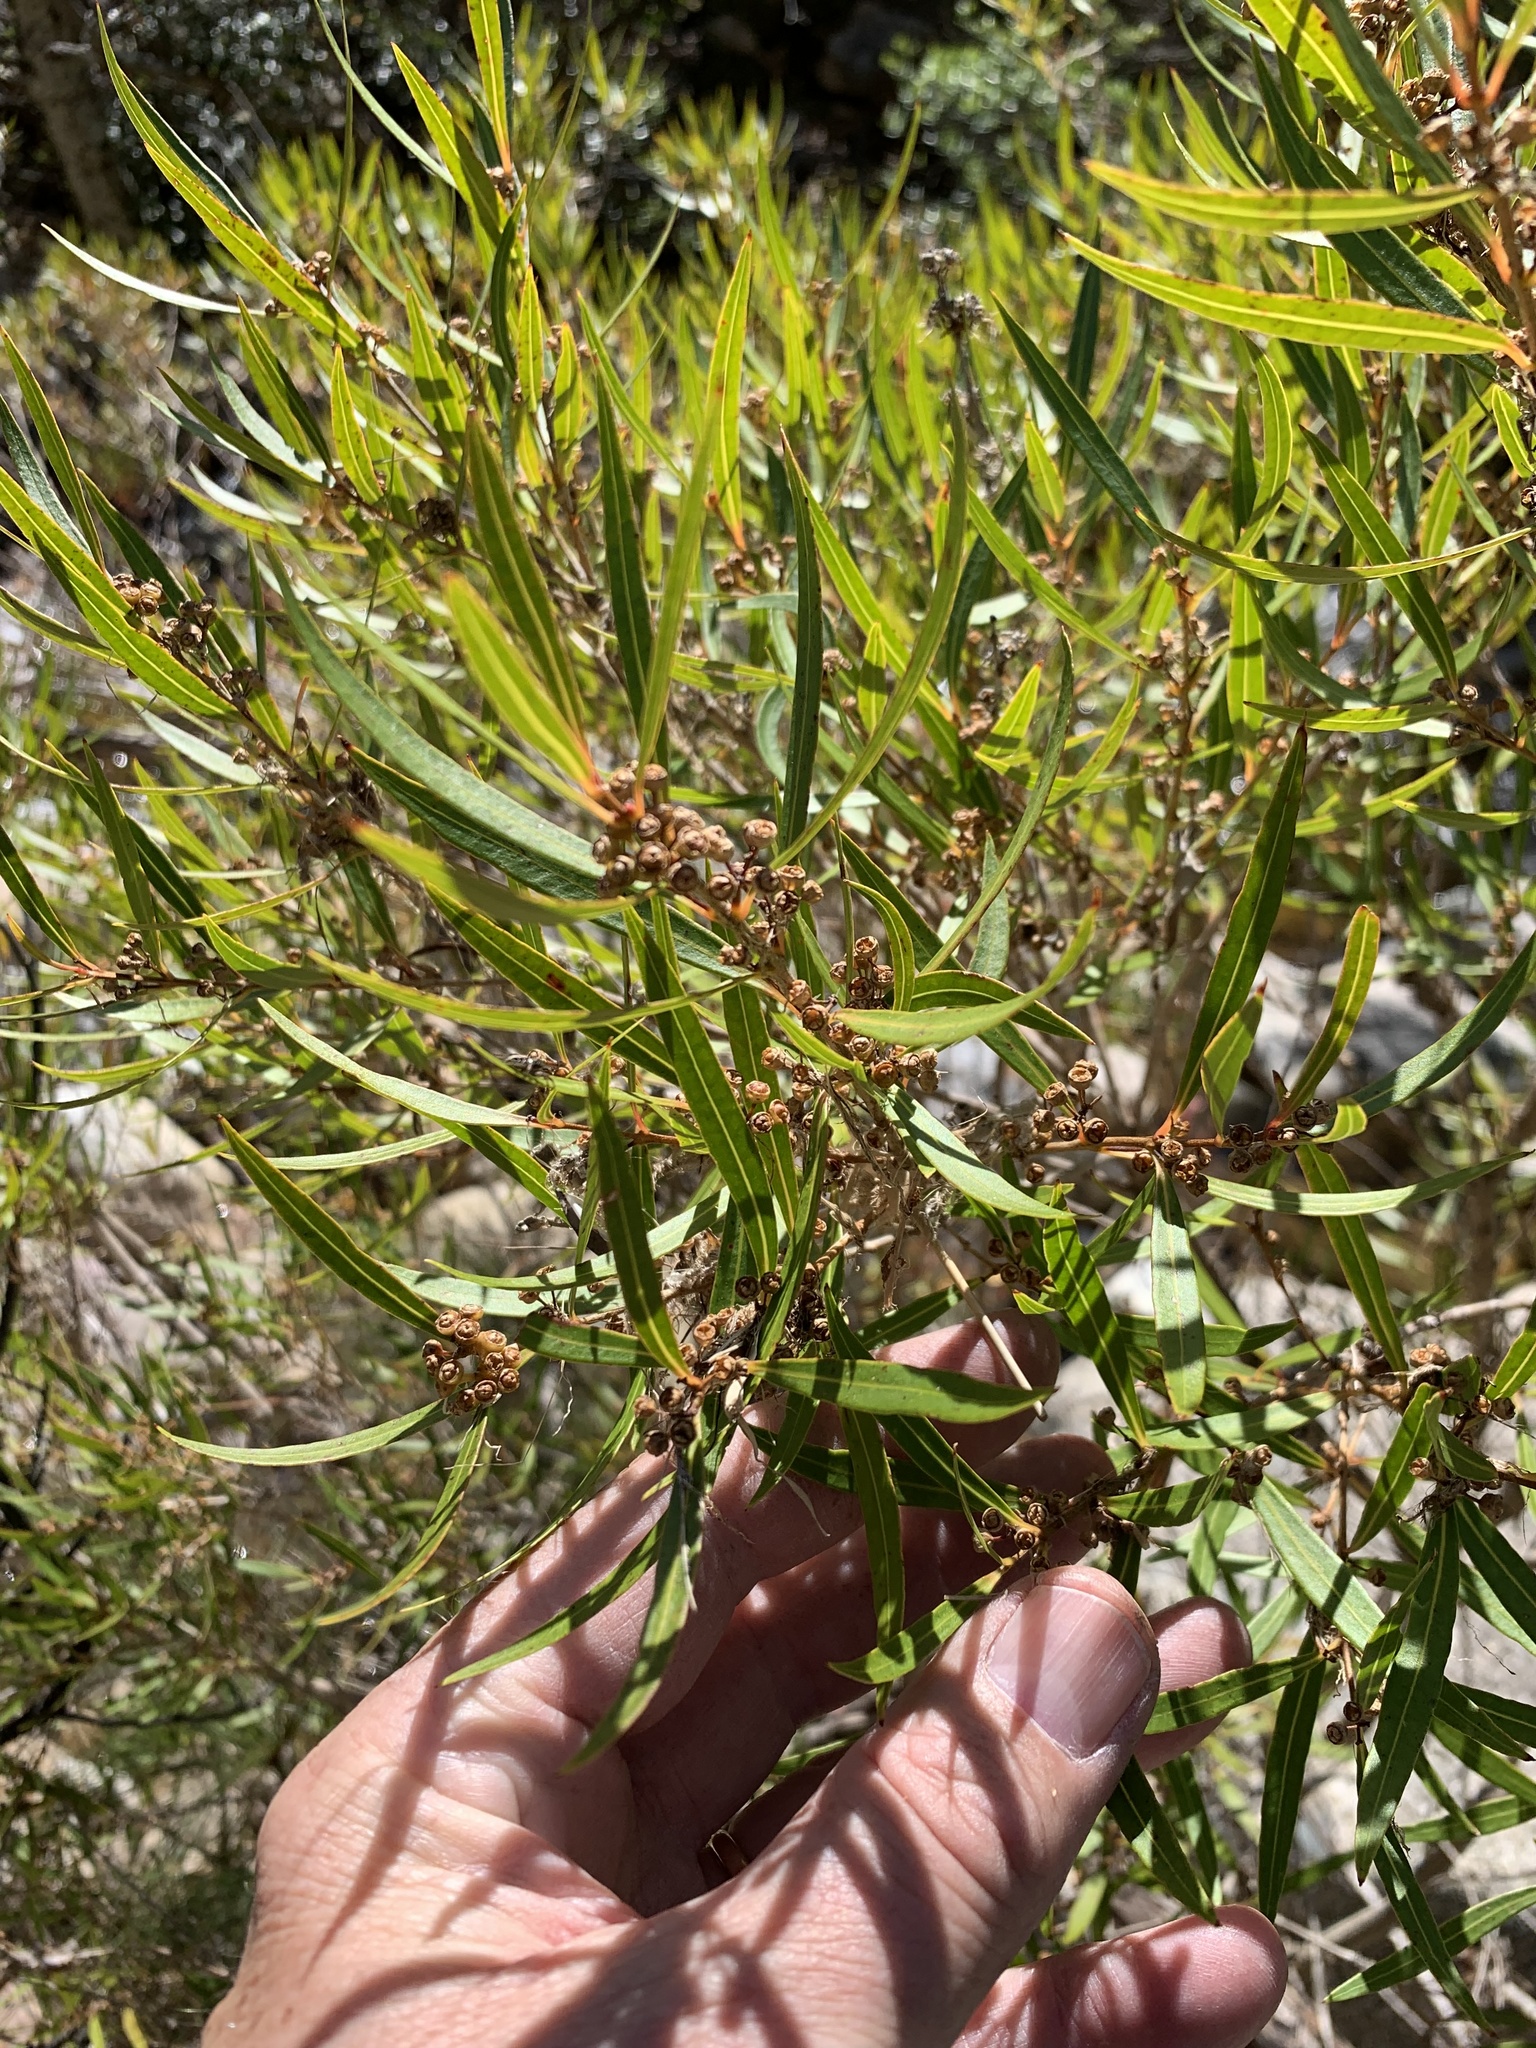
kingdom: Plantae
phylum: Tracheophyta
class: Magnoliopsida
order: Myrtales
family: Myrtaceae
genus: Callistemon
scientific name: Callistemon lanceolatus
